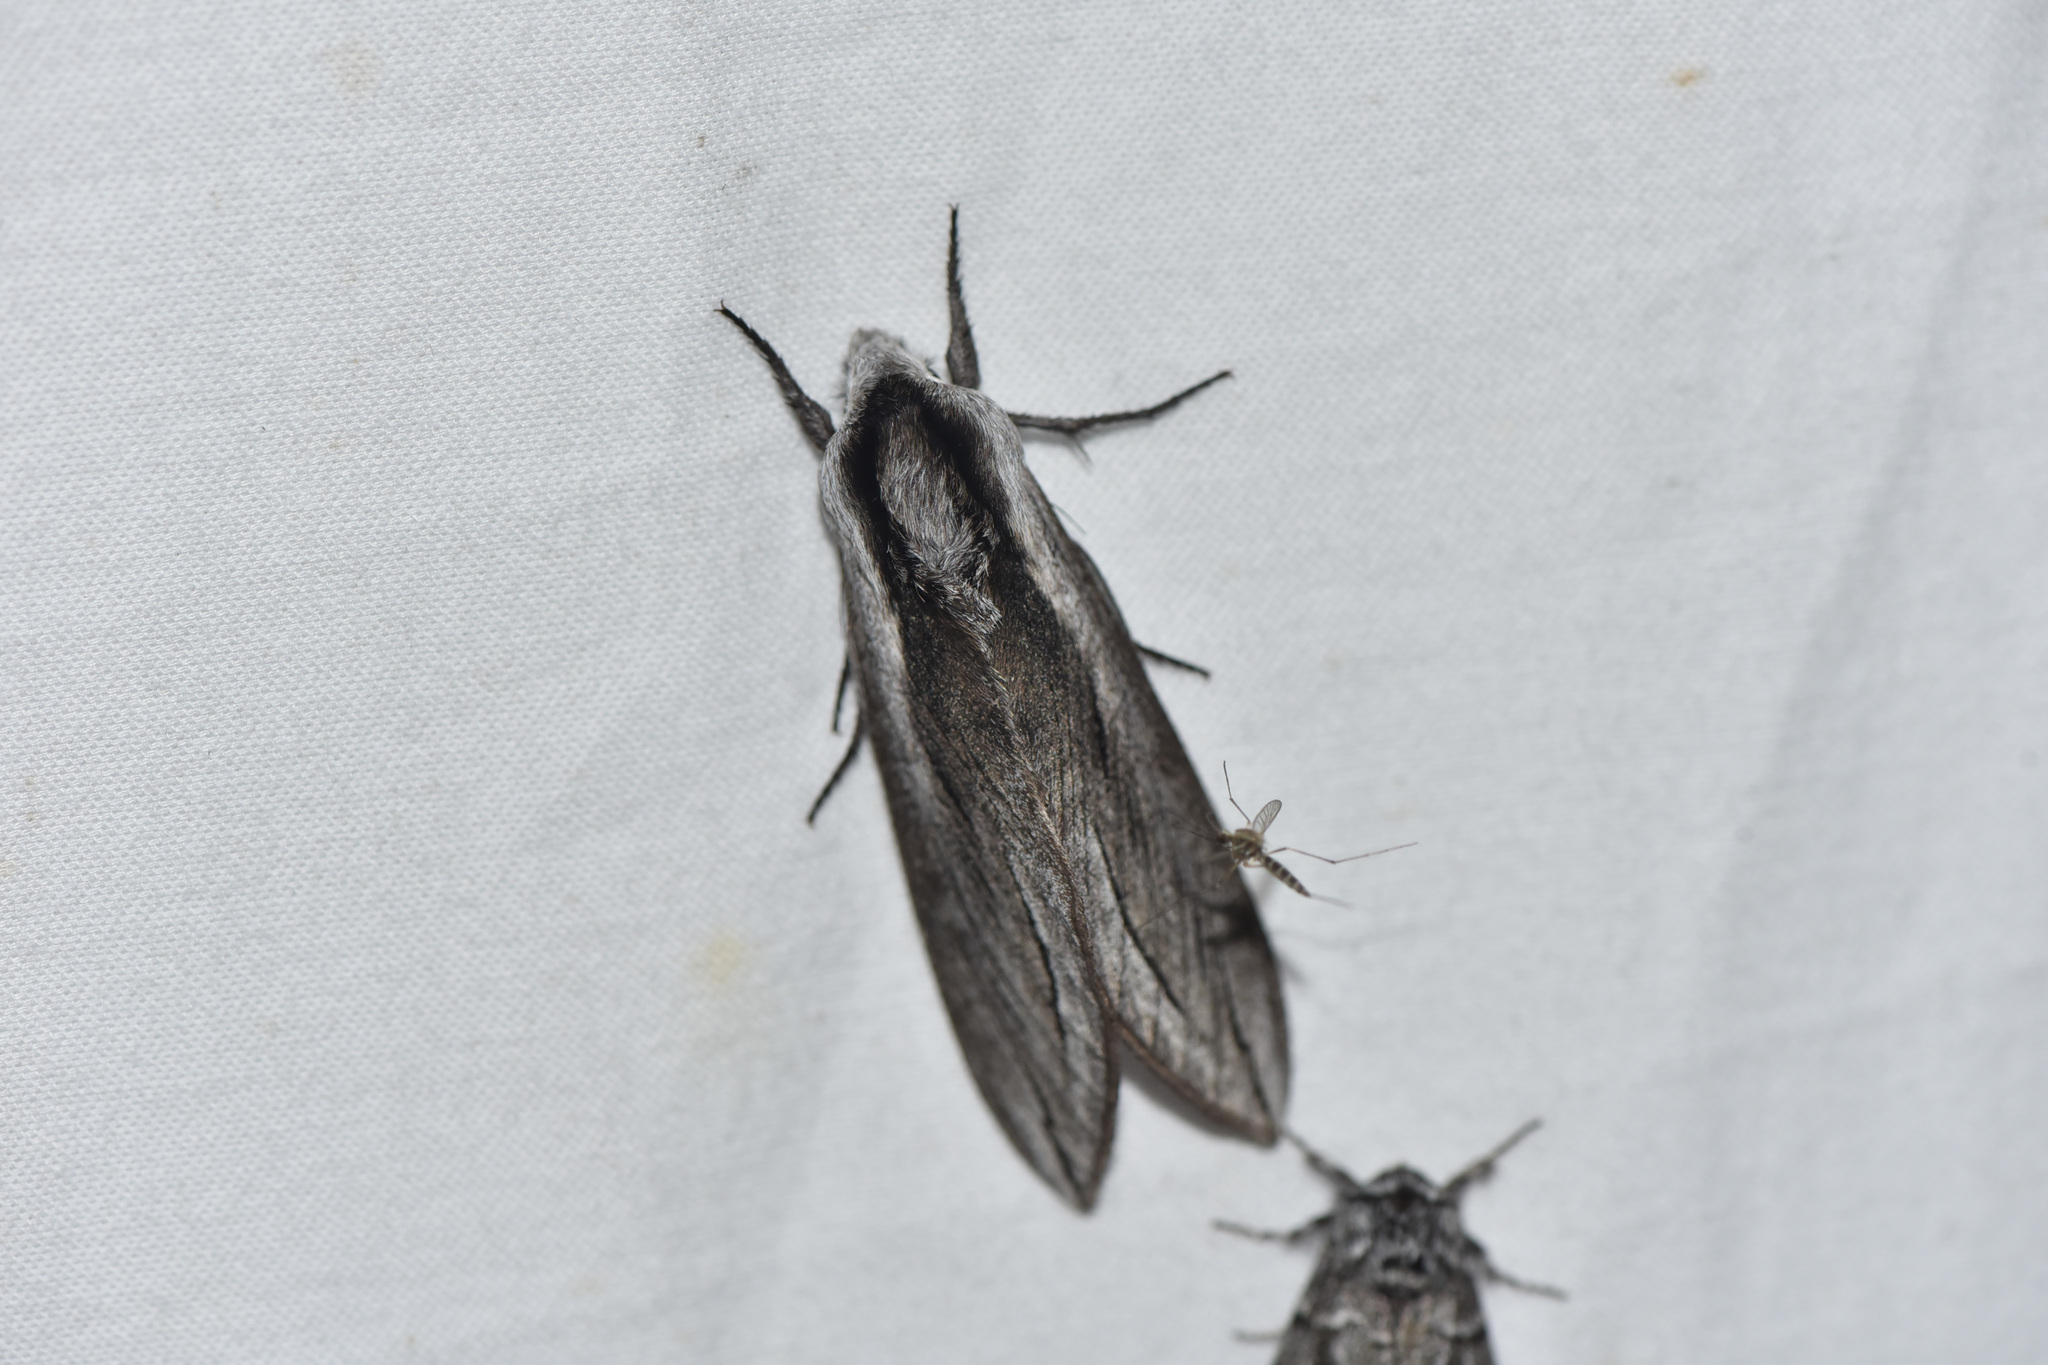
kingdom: Animalia
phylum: Arthropoda
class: Insecta
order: Lepidoptera
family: Sphingidae
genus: Sphinx
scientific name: Sphinx vashti
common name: Snowberry sphinx
